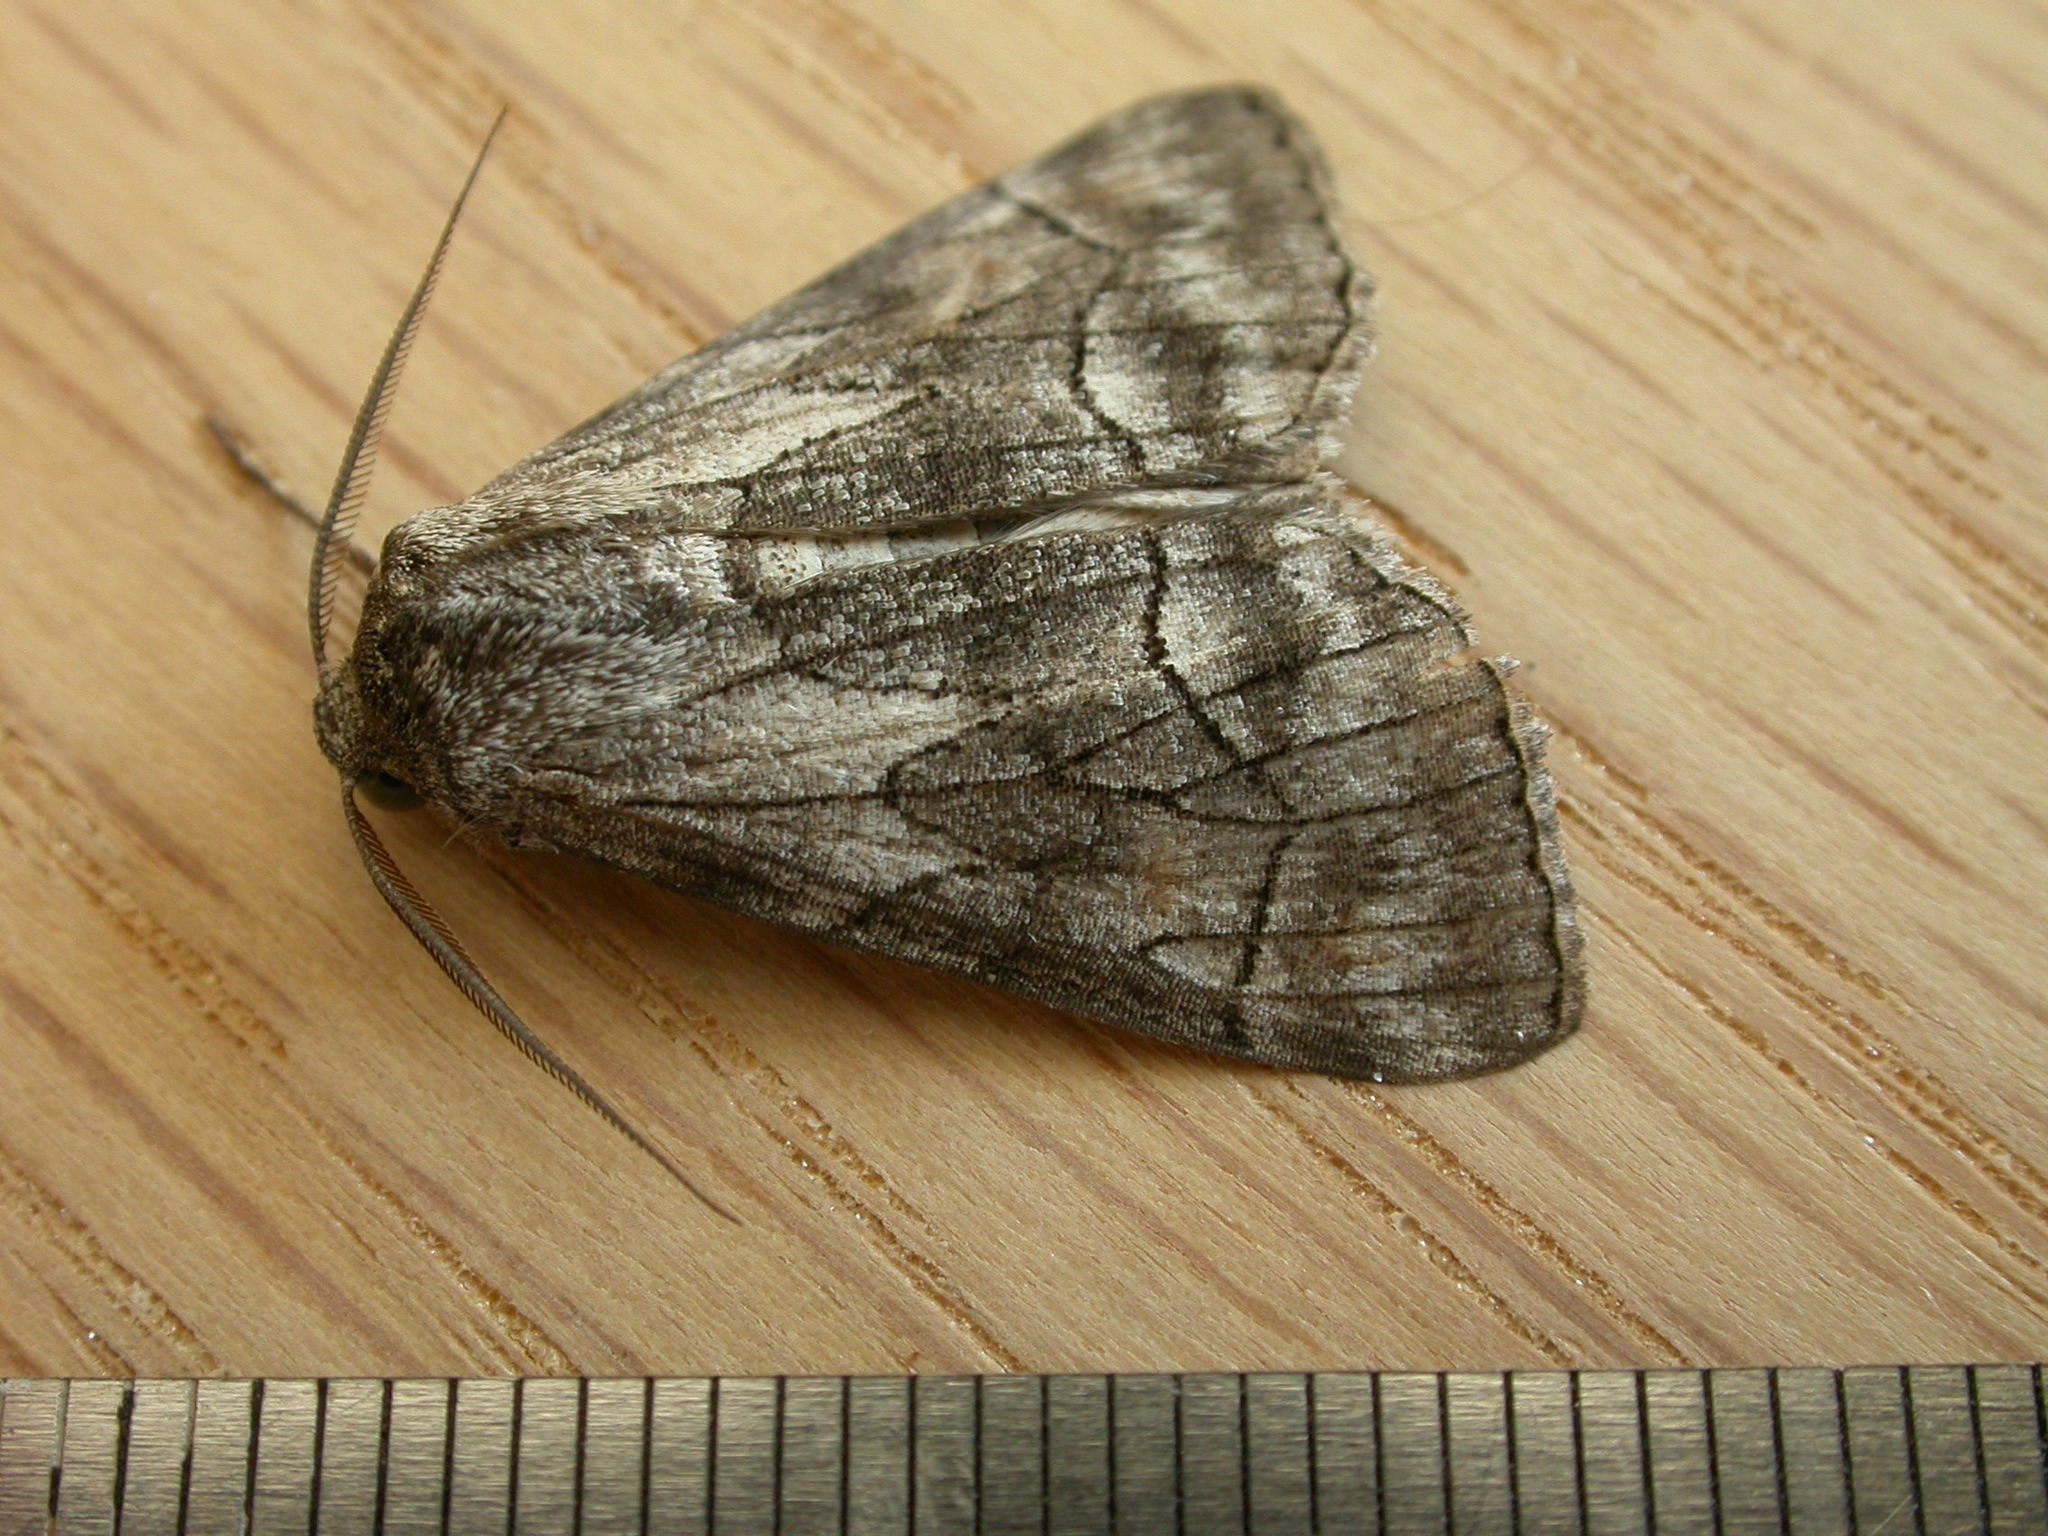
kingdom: Animalia
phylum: Arthropoda
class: Insecta
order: Lepidoptera
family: Geometridae
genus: Stibaractis
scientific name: Stibaractis melanotoxa
